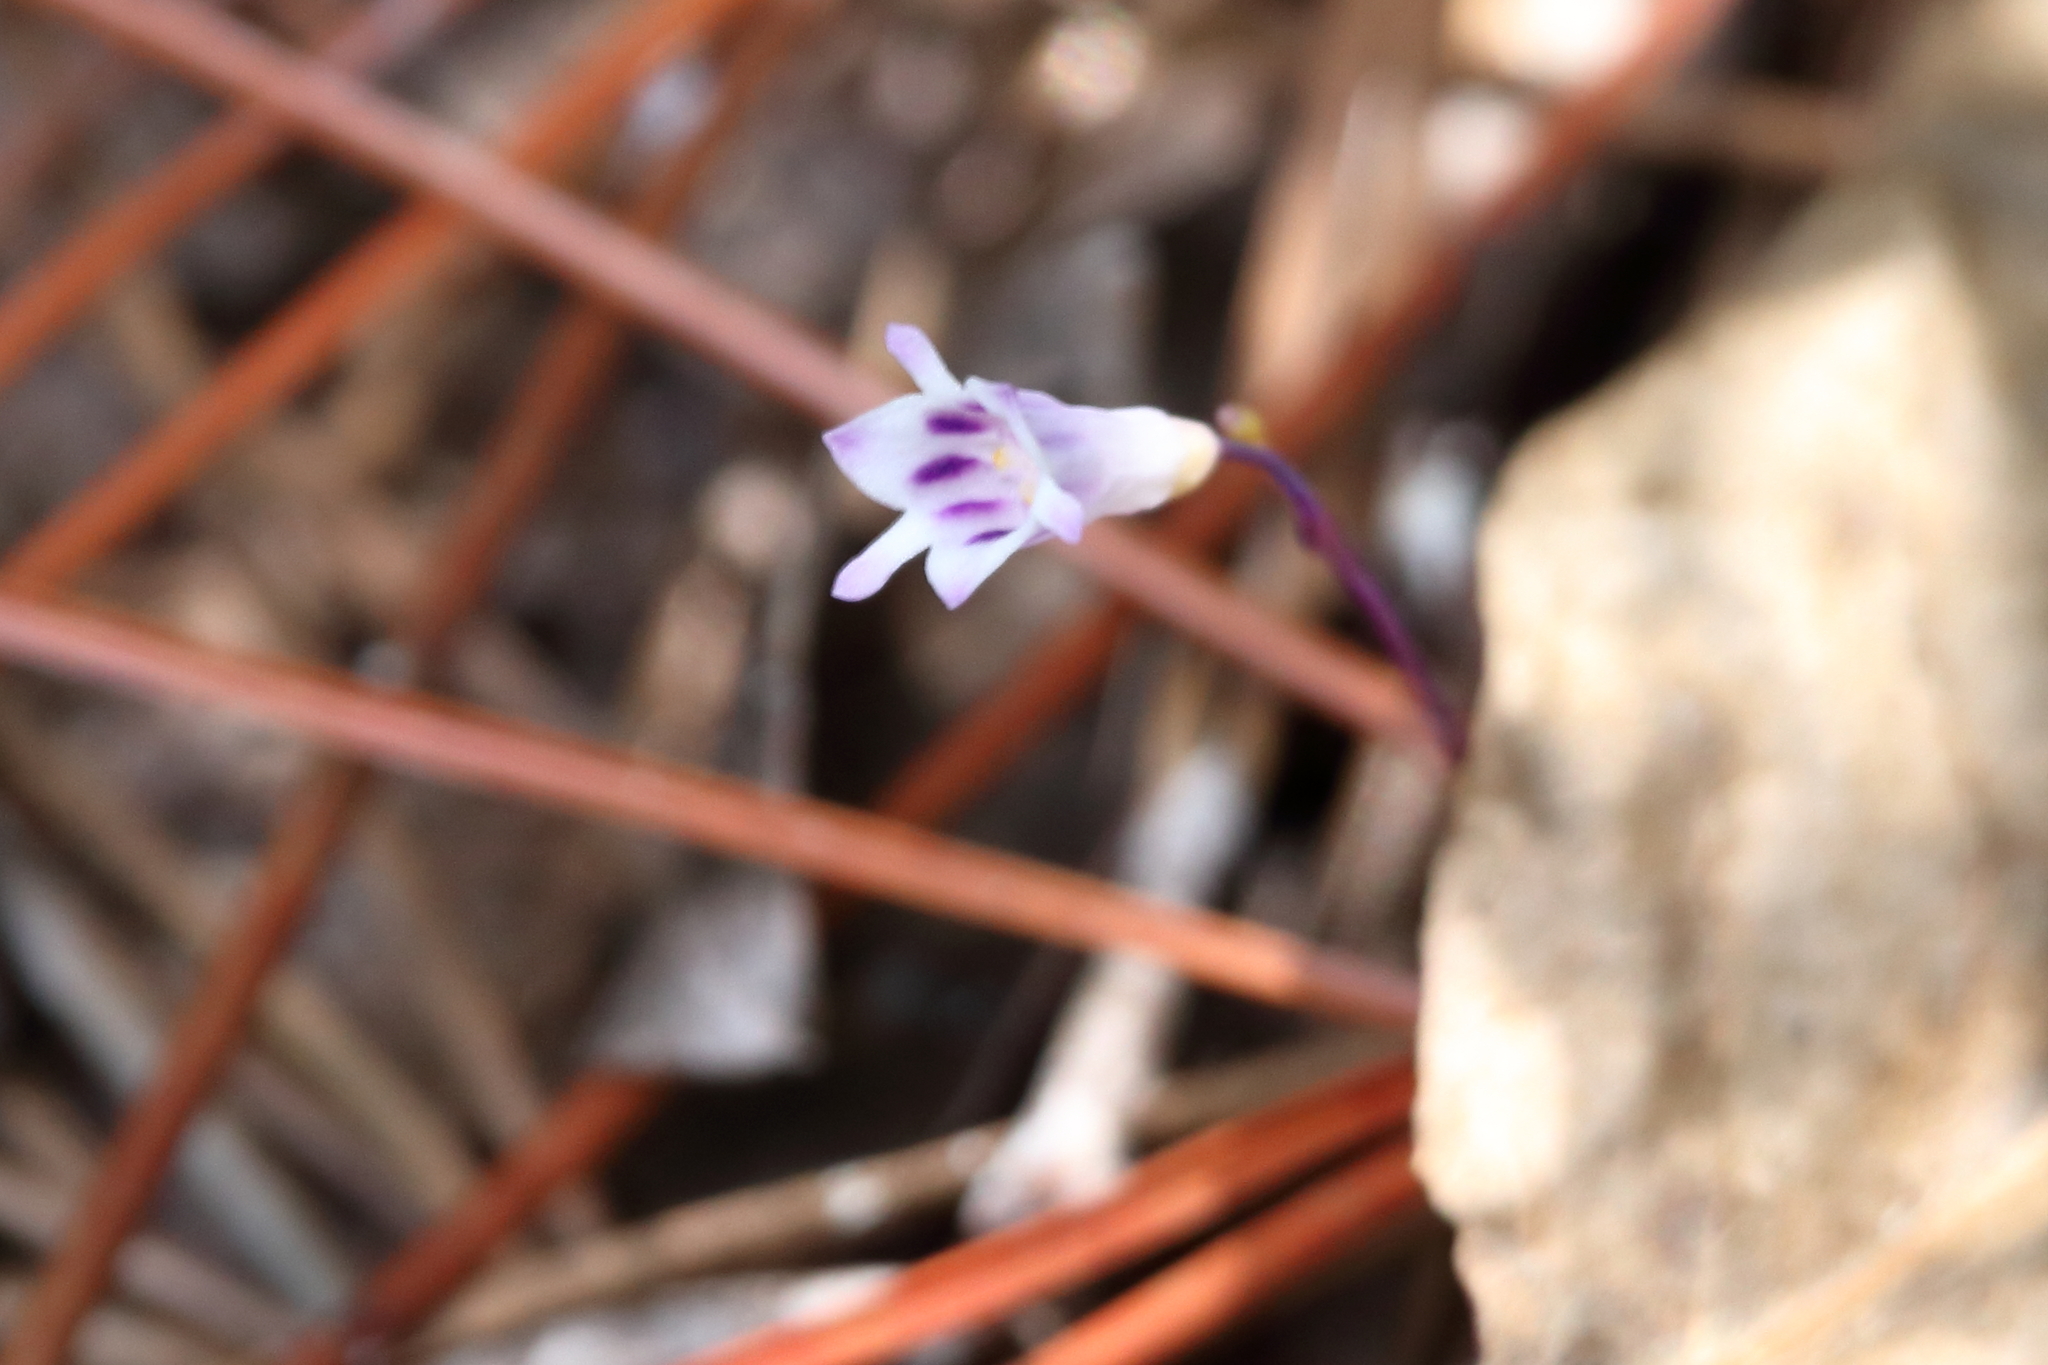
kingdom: Plantae
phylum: Tracheophyta
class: Liliopsida
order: Dioscoreales
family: Burmanniaceae
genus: Apteria
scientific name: Apteria aphylla
